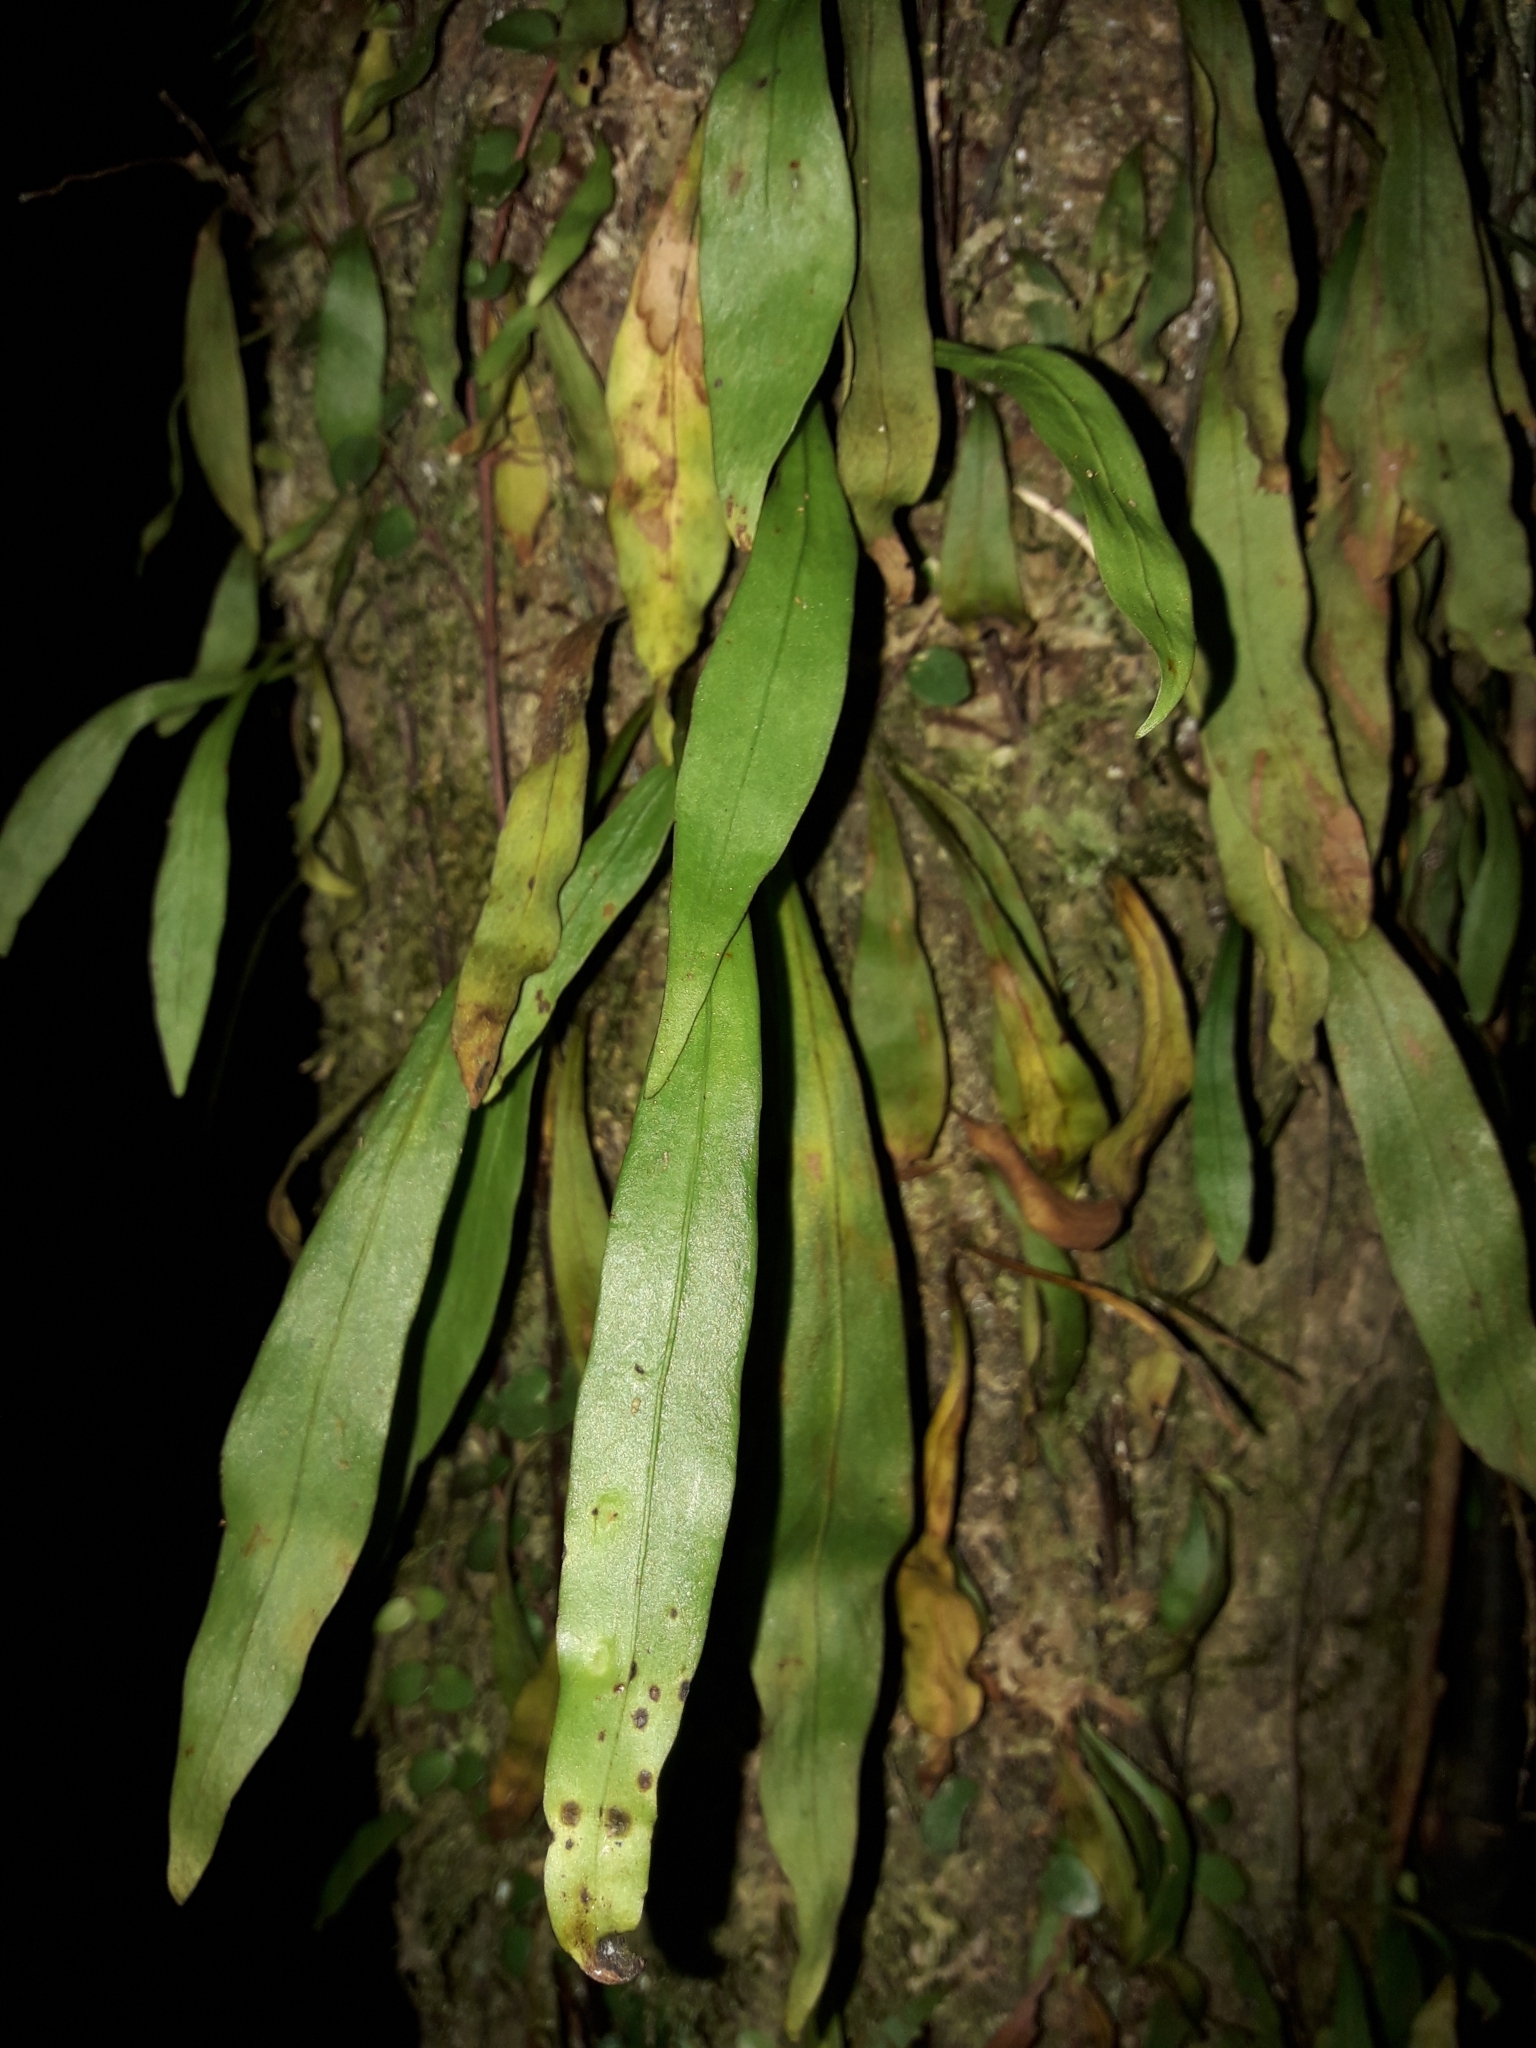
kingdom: Plantae
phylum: Tracheophyta
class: Polypodiopsida
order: Polypodiales
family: Polypodiaceae
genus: Loxogramme
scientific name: Loxogramme dictyopteris
